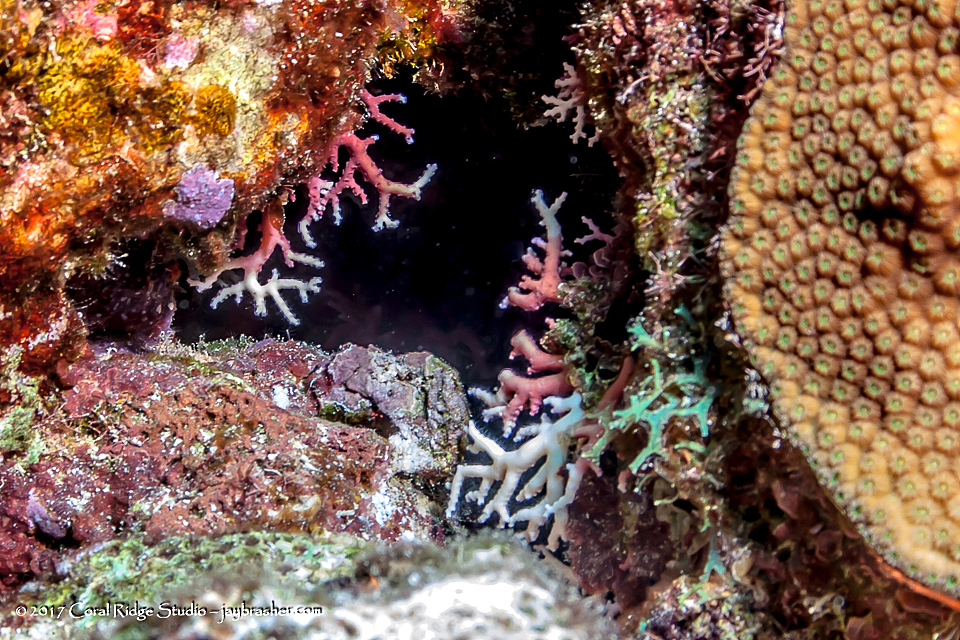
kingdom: Animalia
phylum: Cnidaria
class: Hydrozoa
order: Anthoathecata
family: Stylasteridae
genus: Stylaster
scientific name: Stylaster roseus
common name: Rose lace coral
